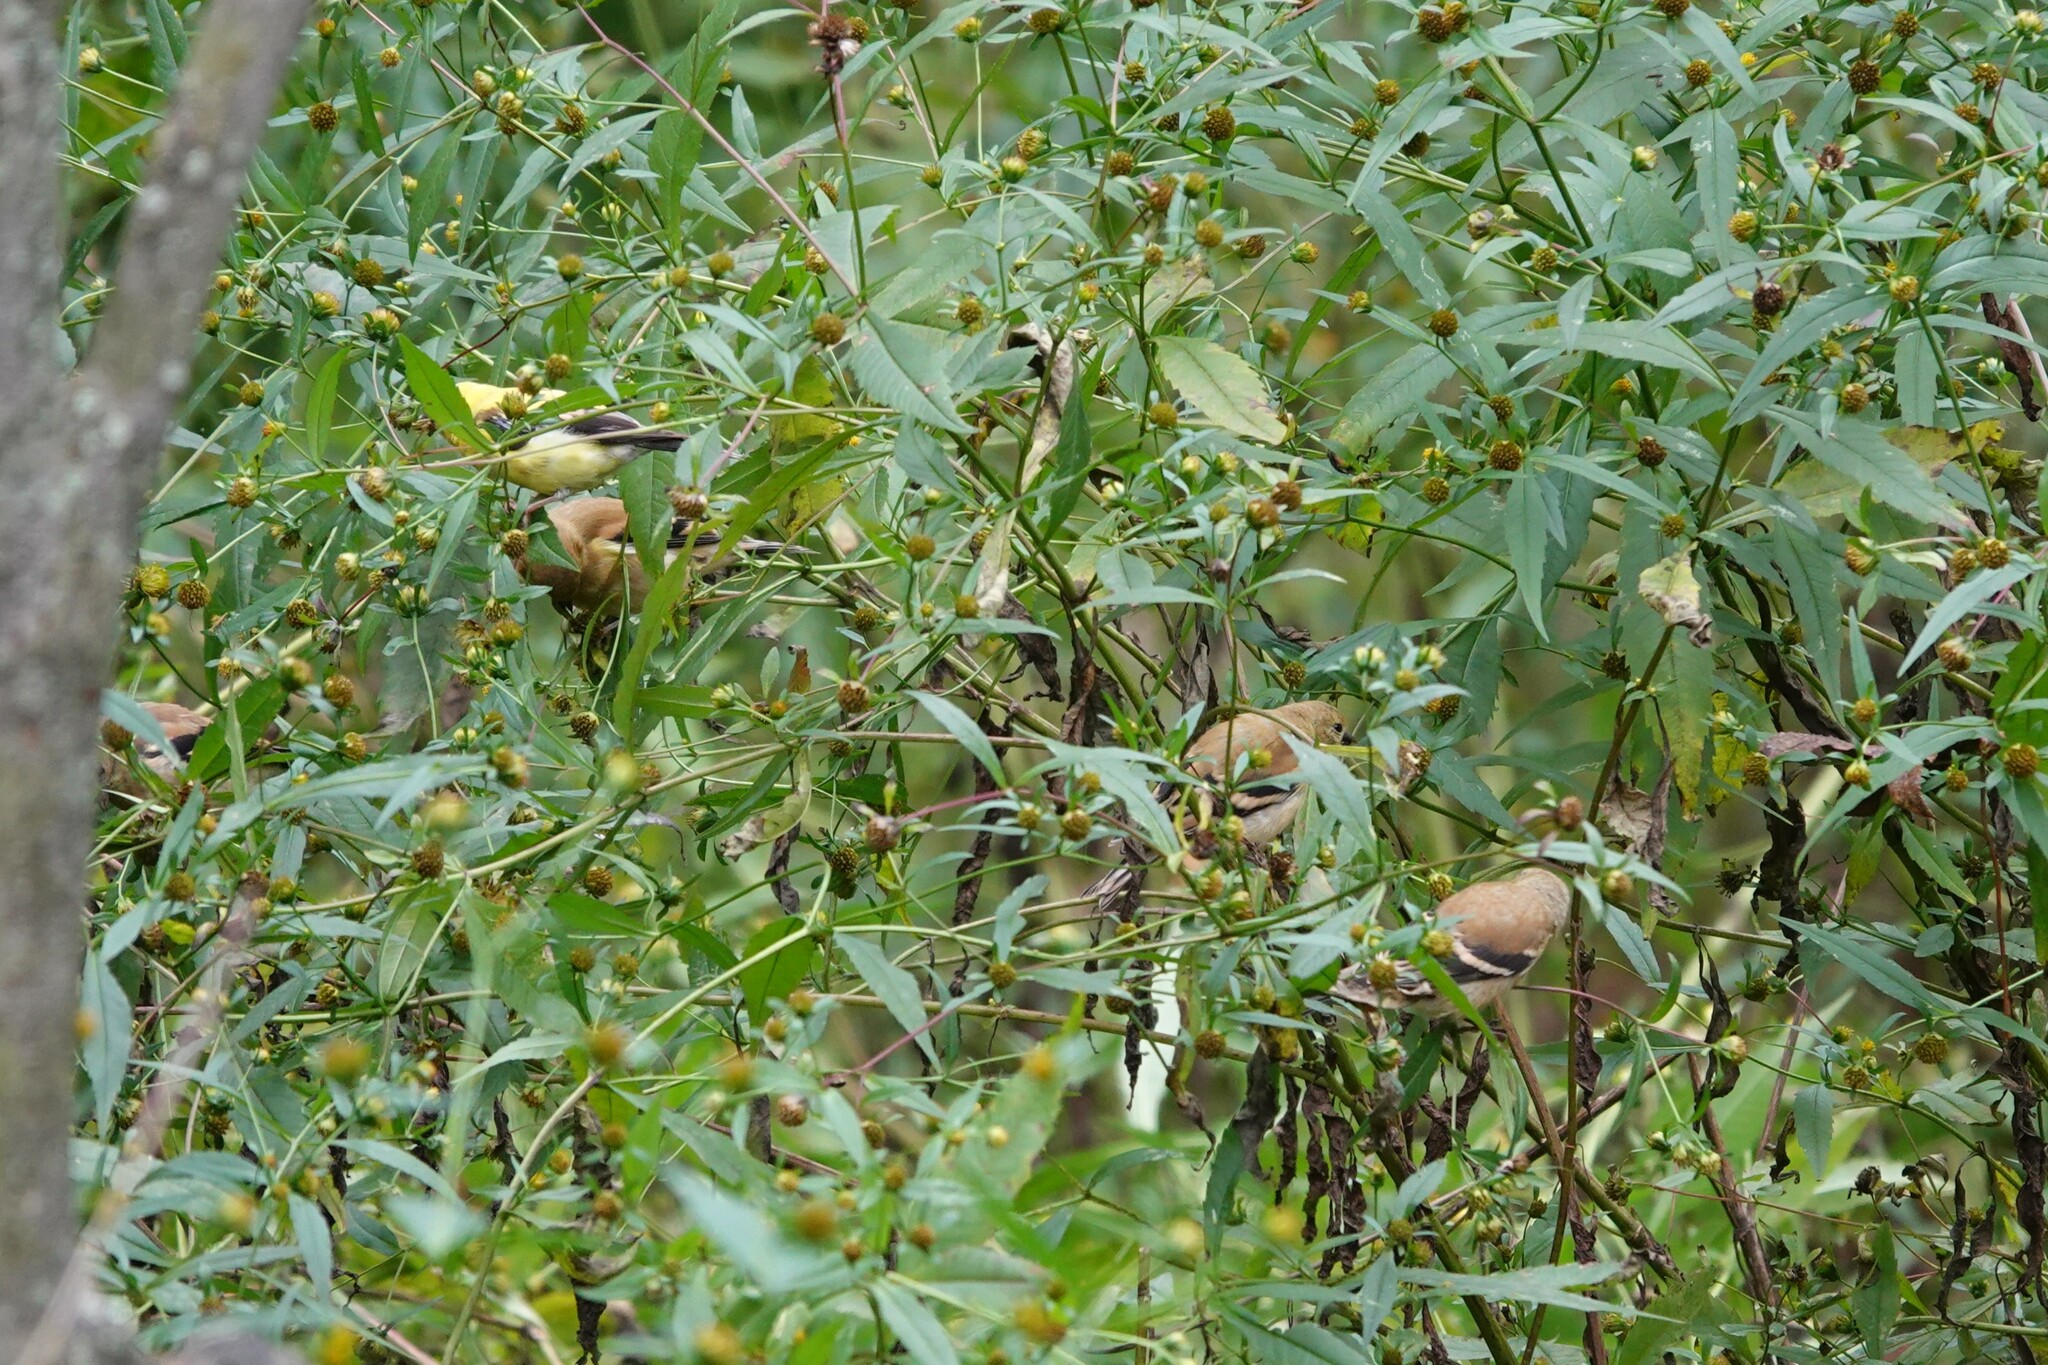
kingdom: Animalia
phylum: Chordata
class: Aves
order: Passeriformes
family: Fringillidae
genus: Spinus
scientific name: Spinus tristis
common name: American goldfinch
